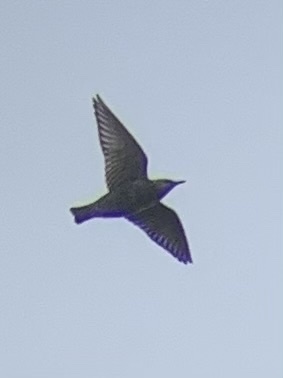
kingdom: Animalia
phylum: Chordata
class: Aves
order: Passeriformes
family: Sturnidae
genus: Sturnus
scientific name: Sturnus vulgaris
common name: Common starling
